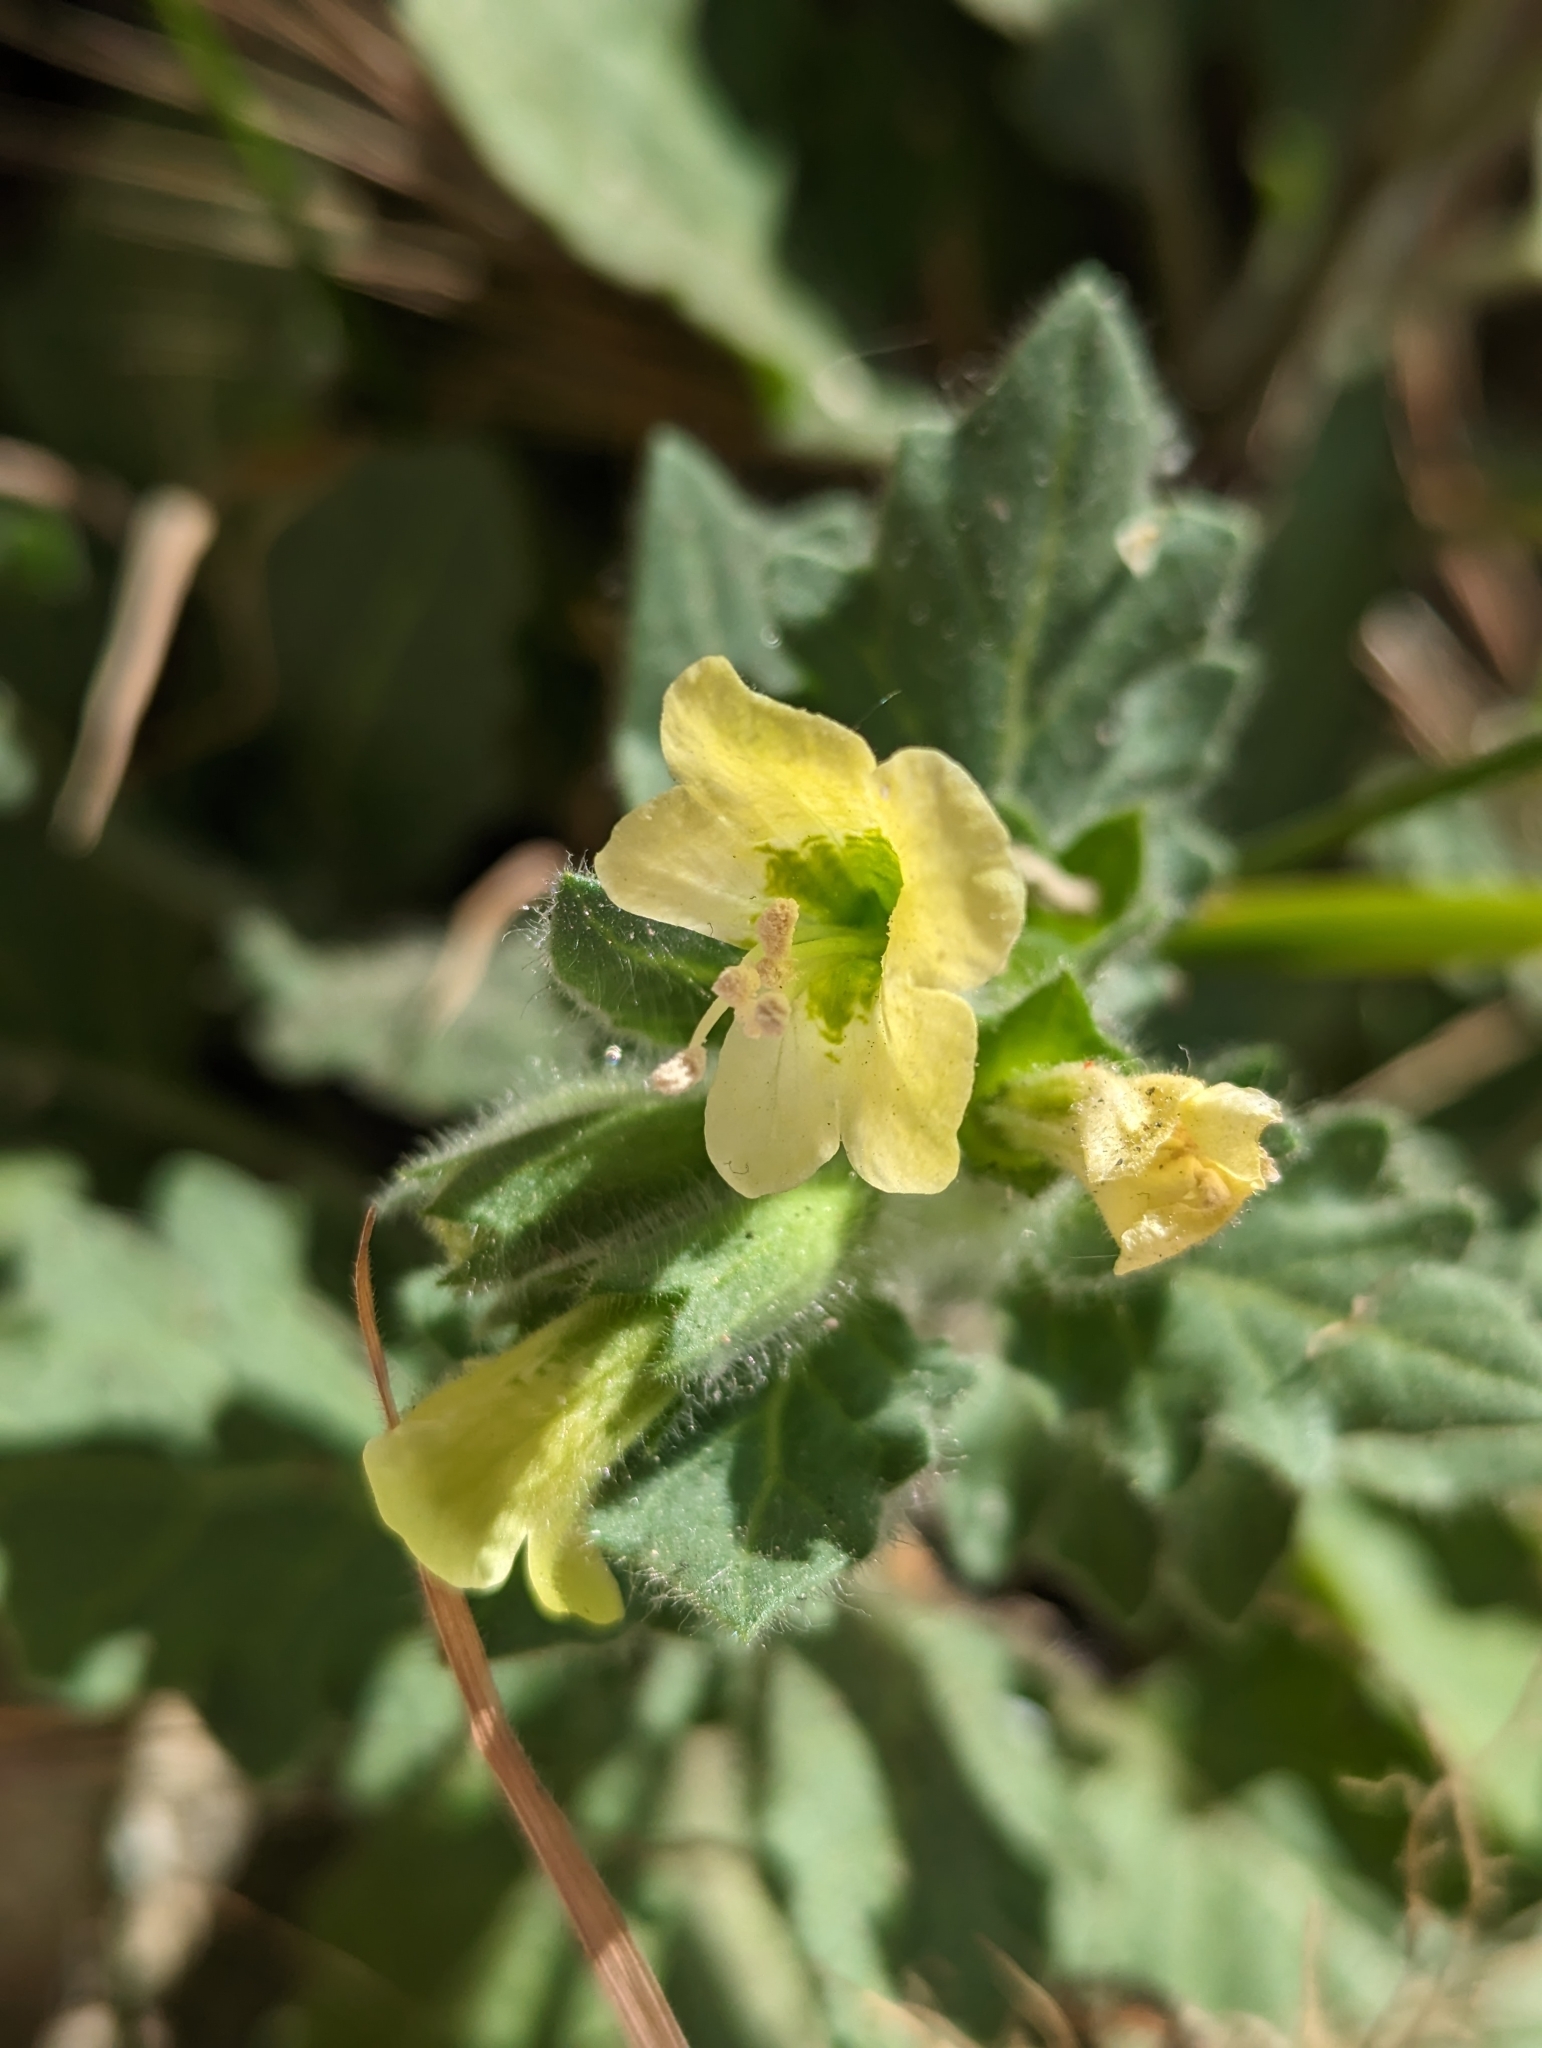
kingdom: Plantae
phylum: Tracheophyta
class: Magnoliopsida
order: Solanales
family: Solanaceae
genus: Hyoscyamus
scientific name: Hyoscyamus albus
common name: White henbane
